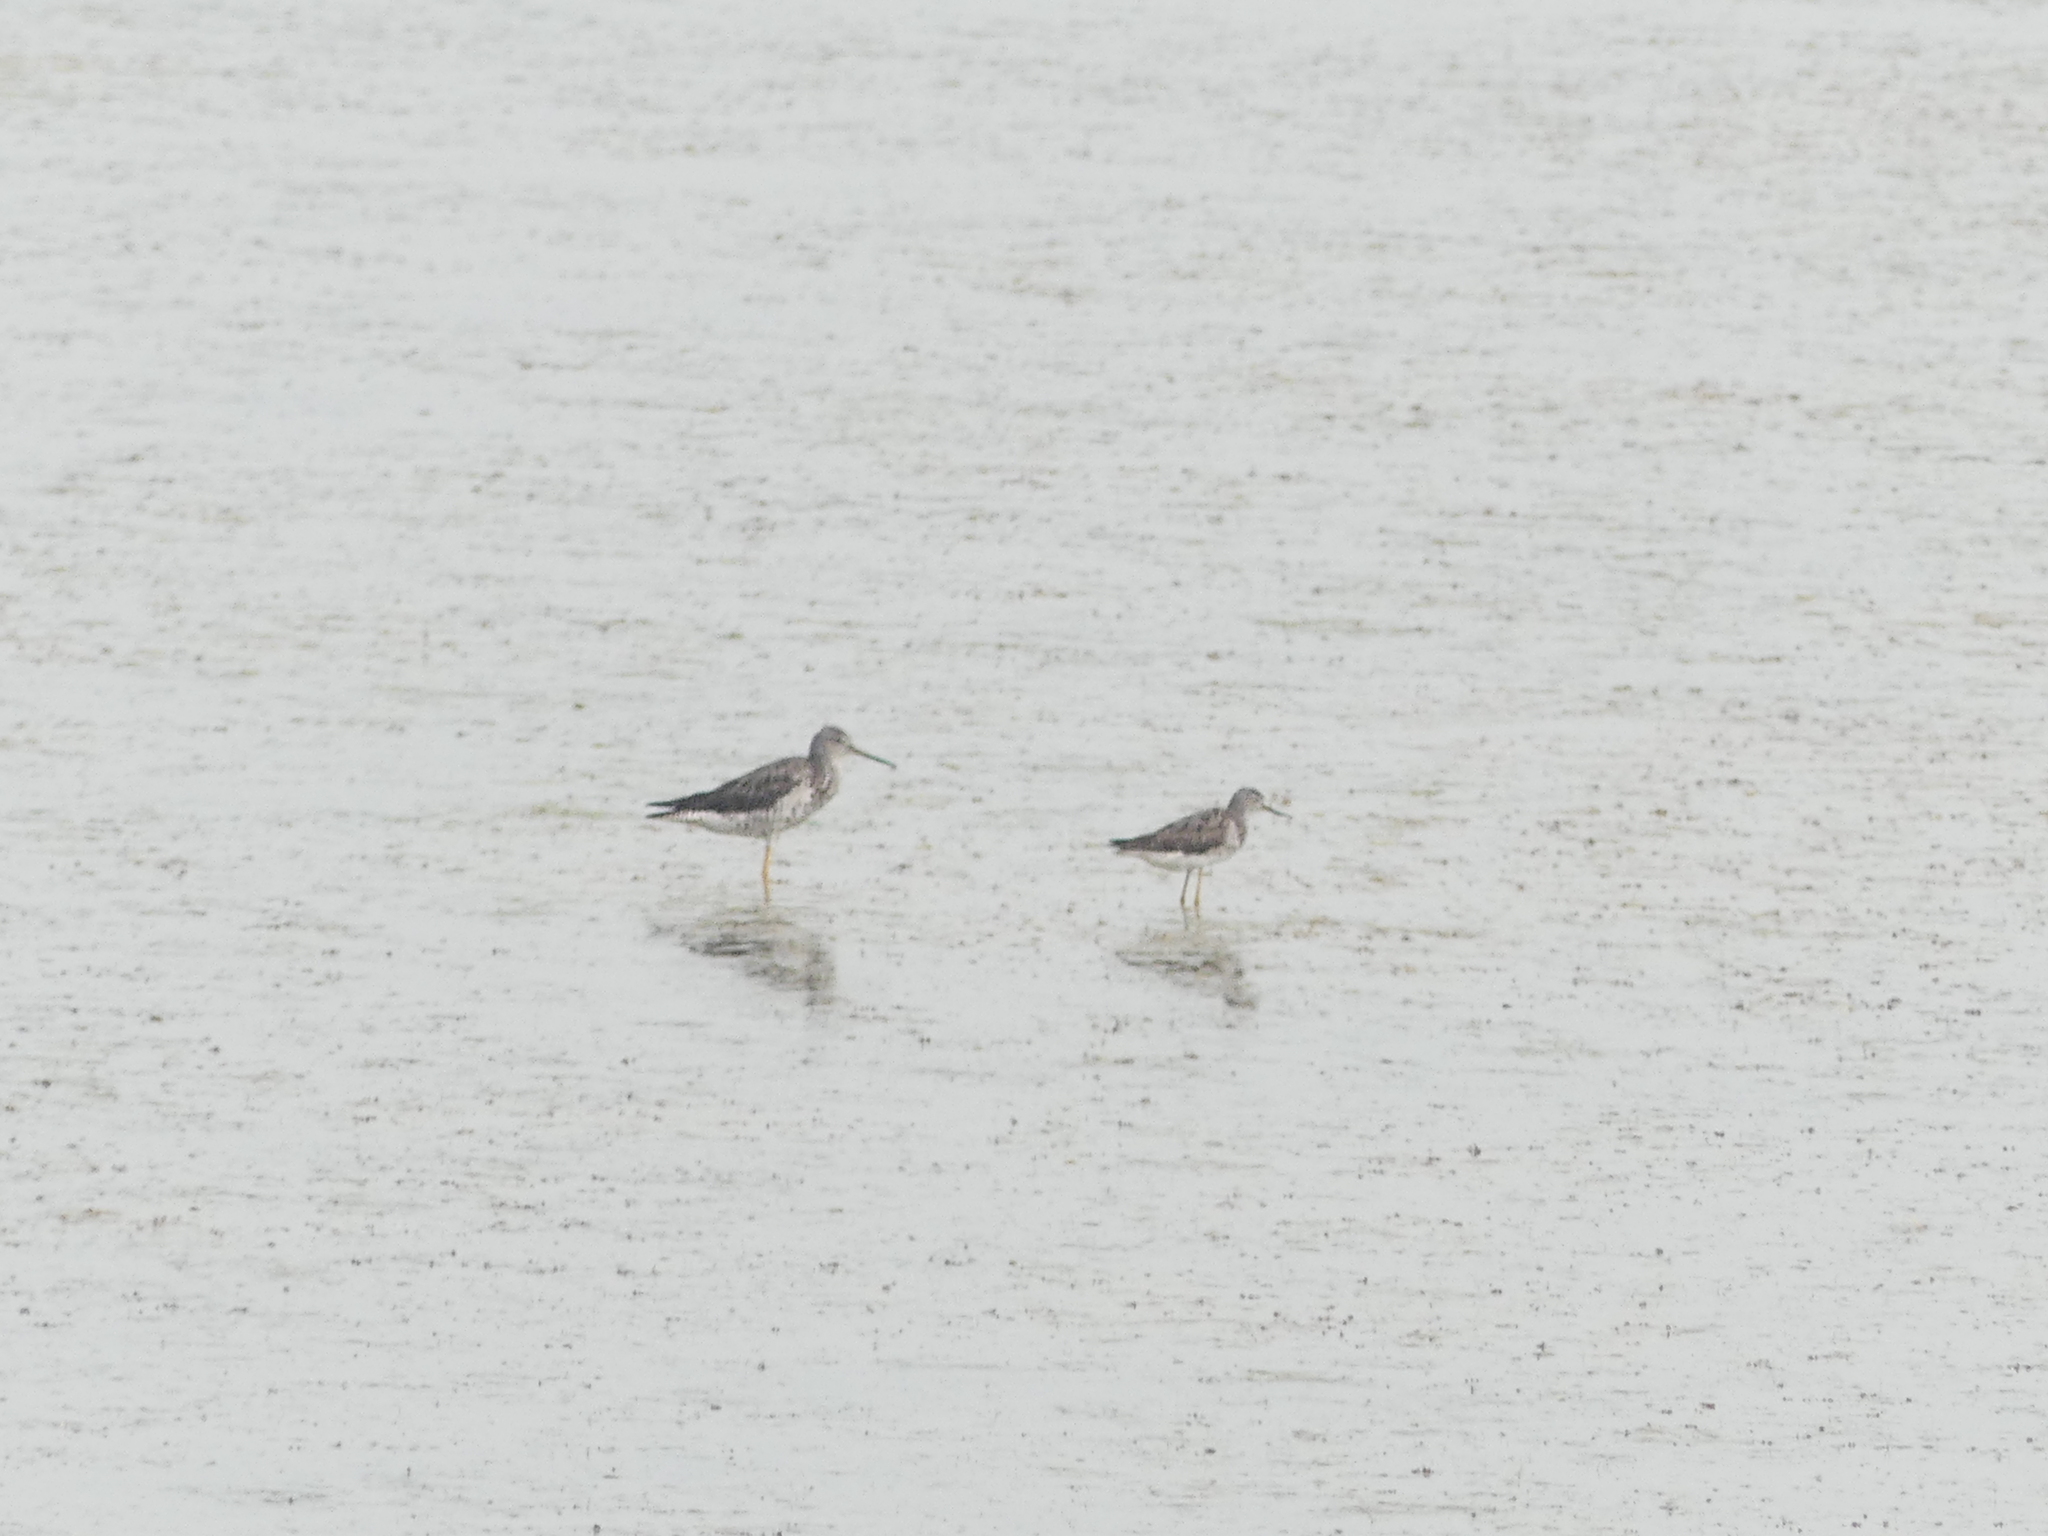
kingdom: Animalia
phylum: Chordata
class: Aves
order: Charadriiformes
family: Scolopacidae
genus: Tringa
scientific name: Tringa melanoleuca
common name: Greater yellowlegs
